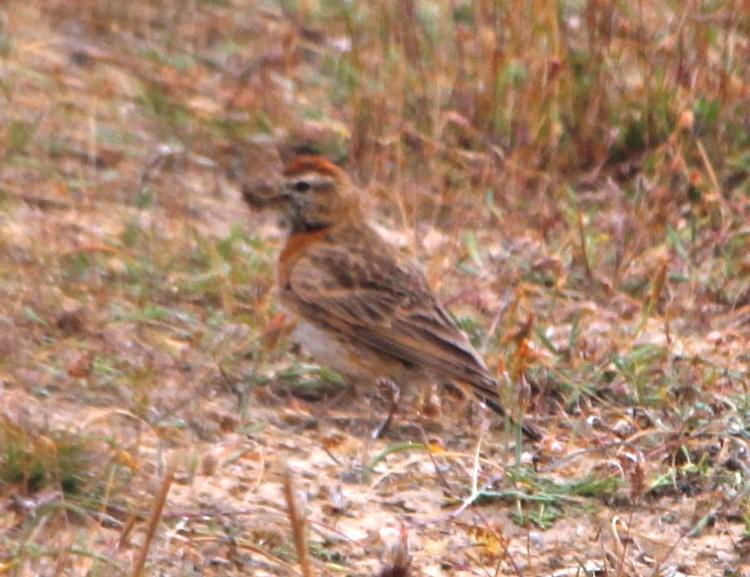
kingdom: Animalia
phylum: Chordata
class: Aves
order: Passeriformes
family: Alaudidae
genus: Calandrella
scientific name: Calandrella cinerea
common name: Red-capped lark
